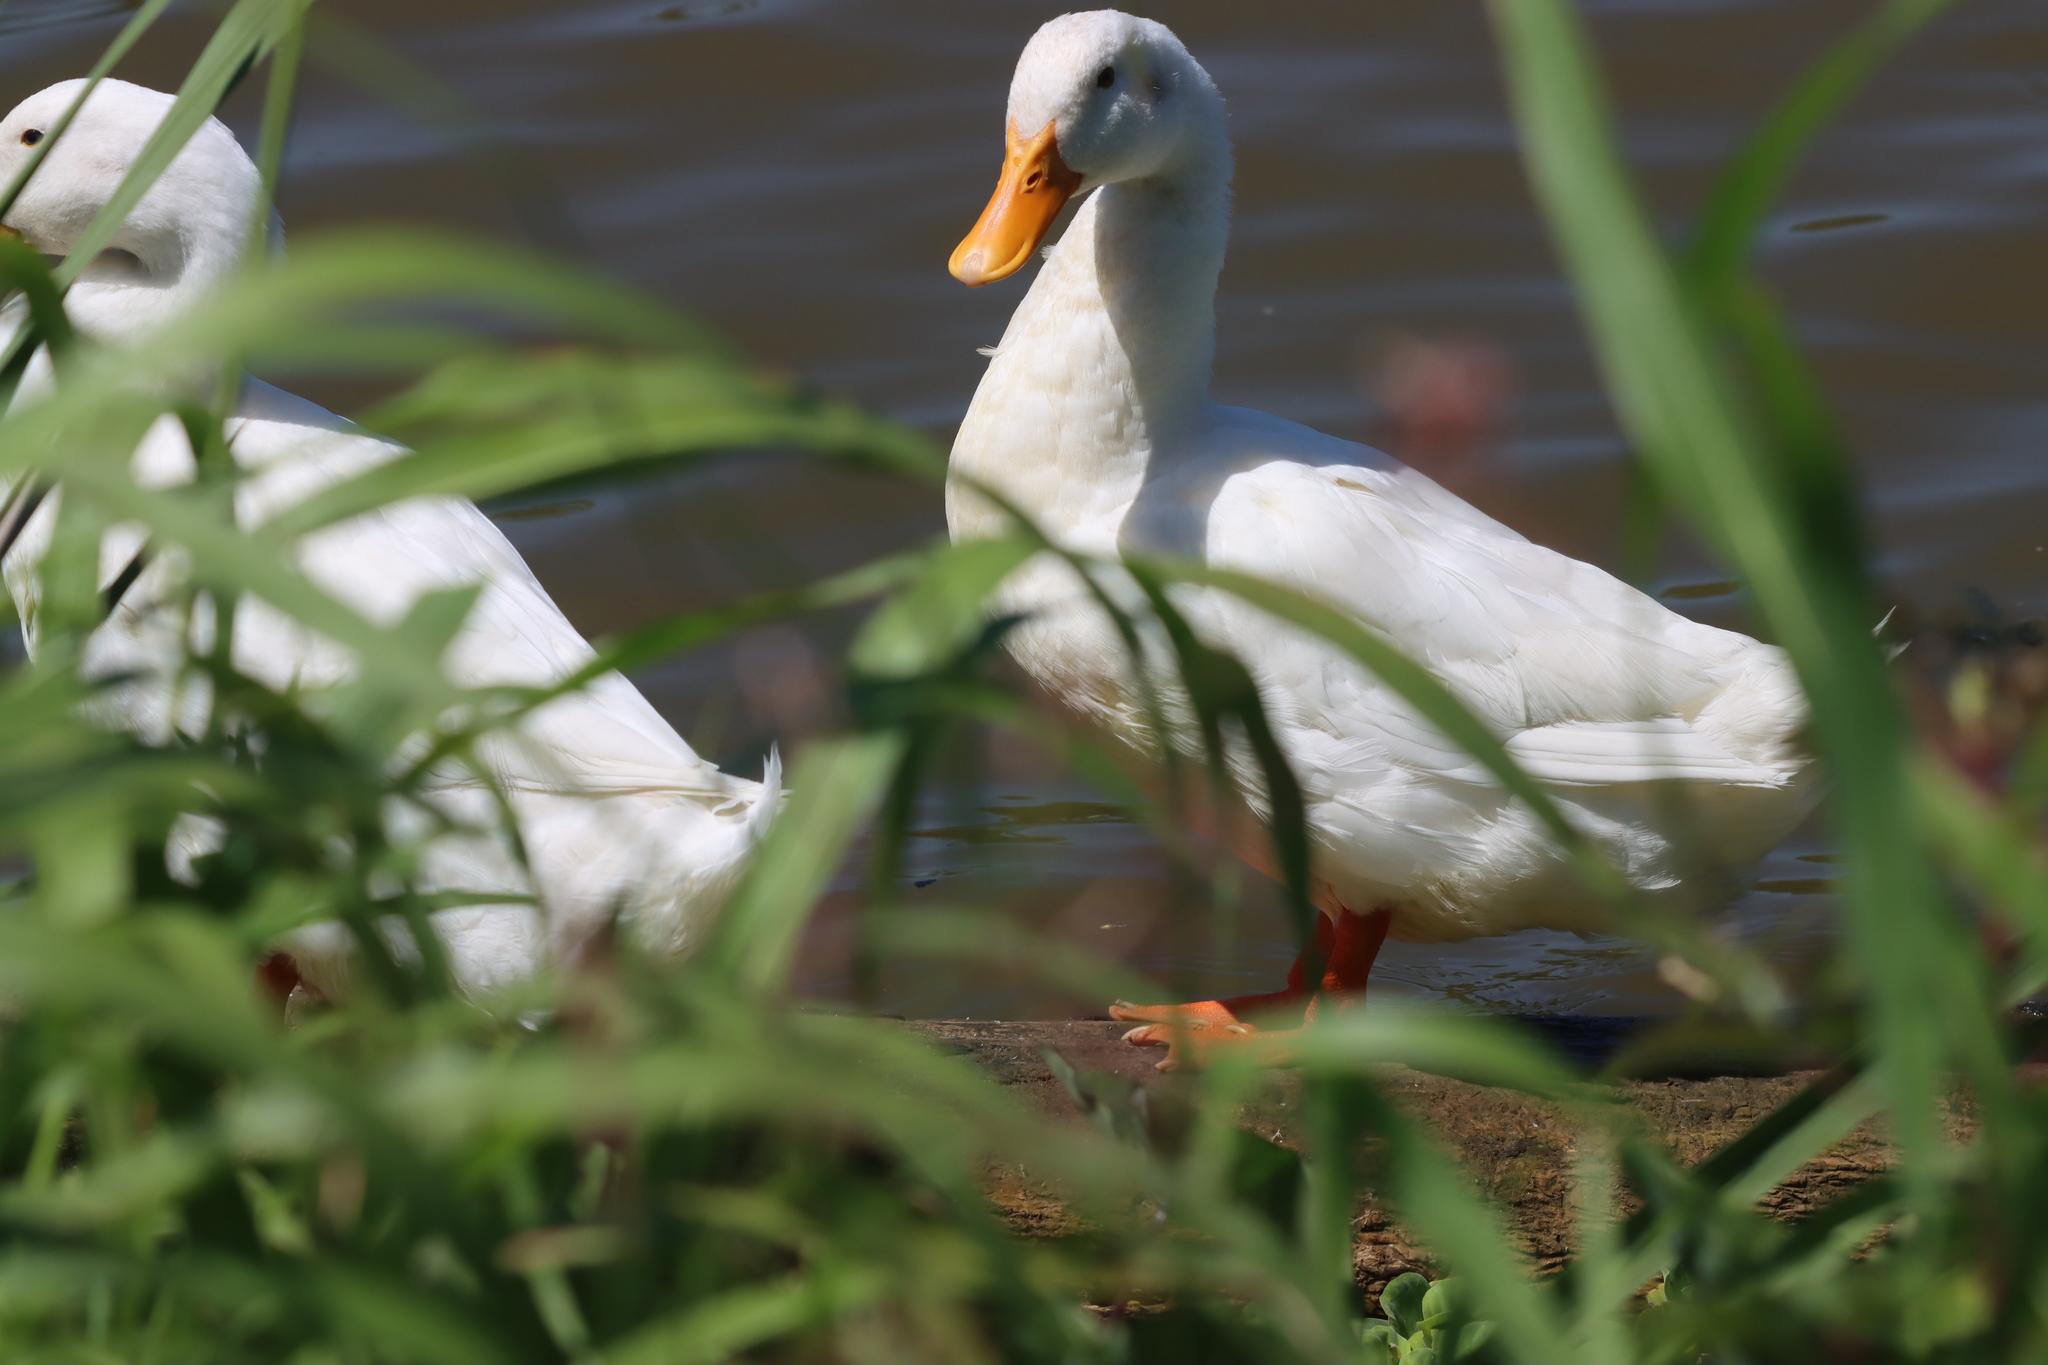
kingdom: Animalia
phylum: Chordata
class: Aves
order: Anseriformes
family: Anatidae
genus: Anas
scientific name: Anas platyrhynchos
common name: Mallard
